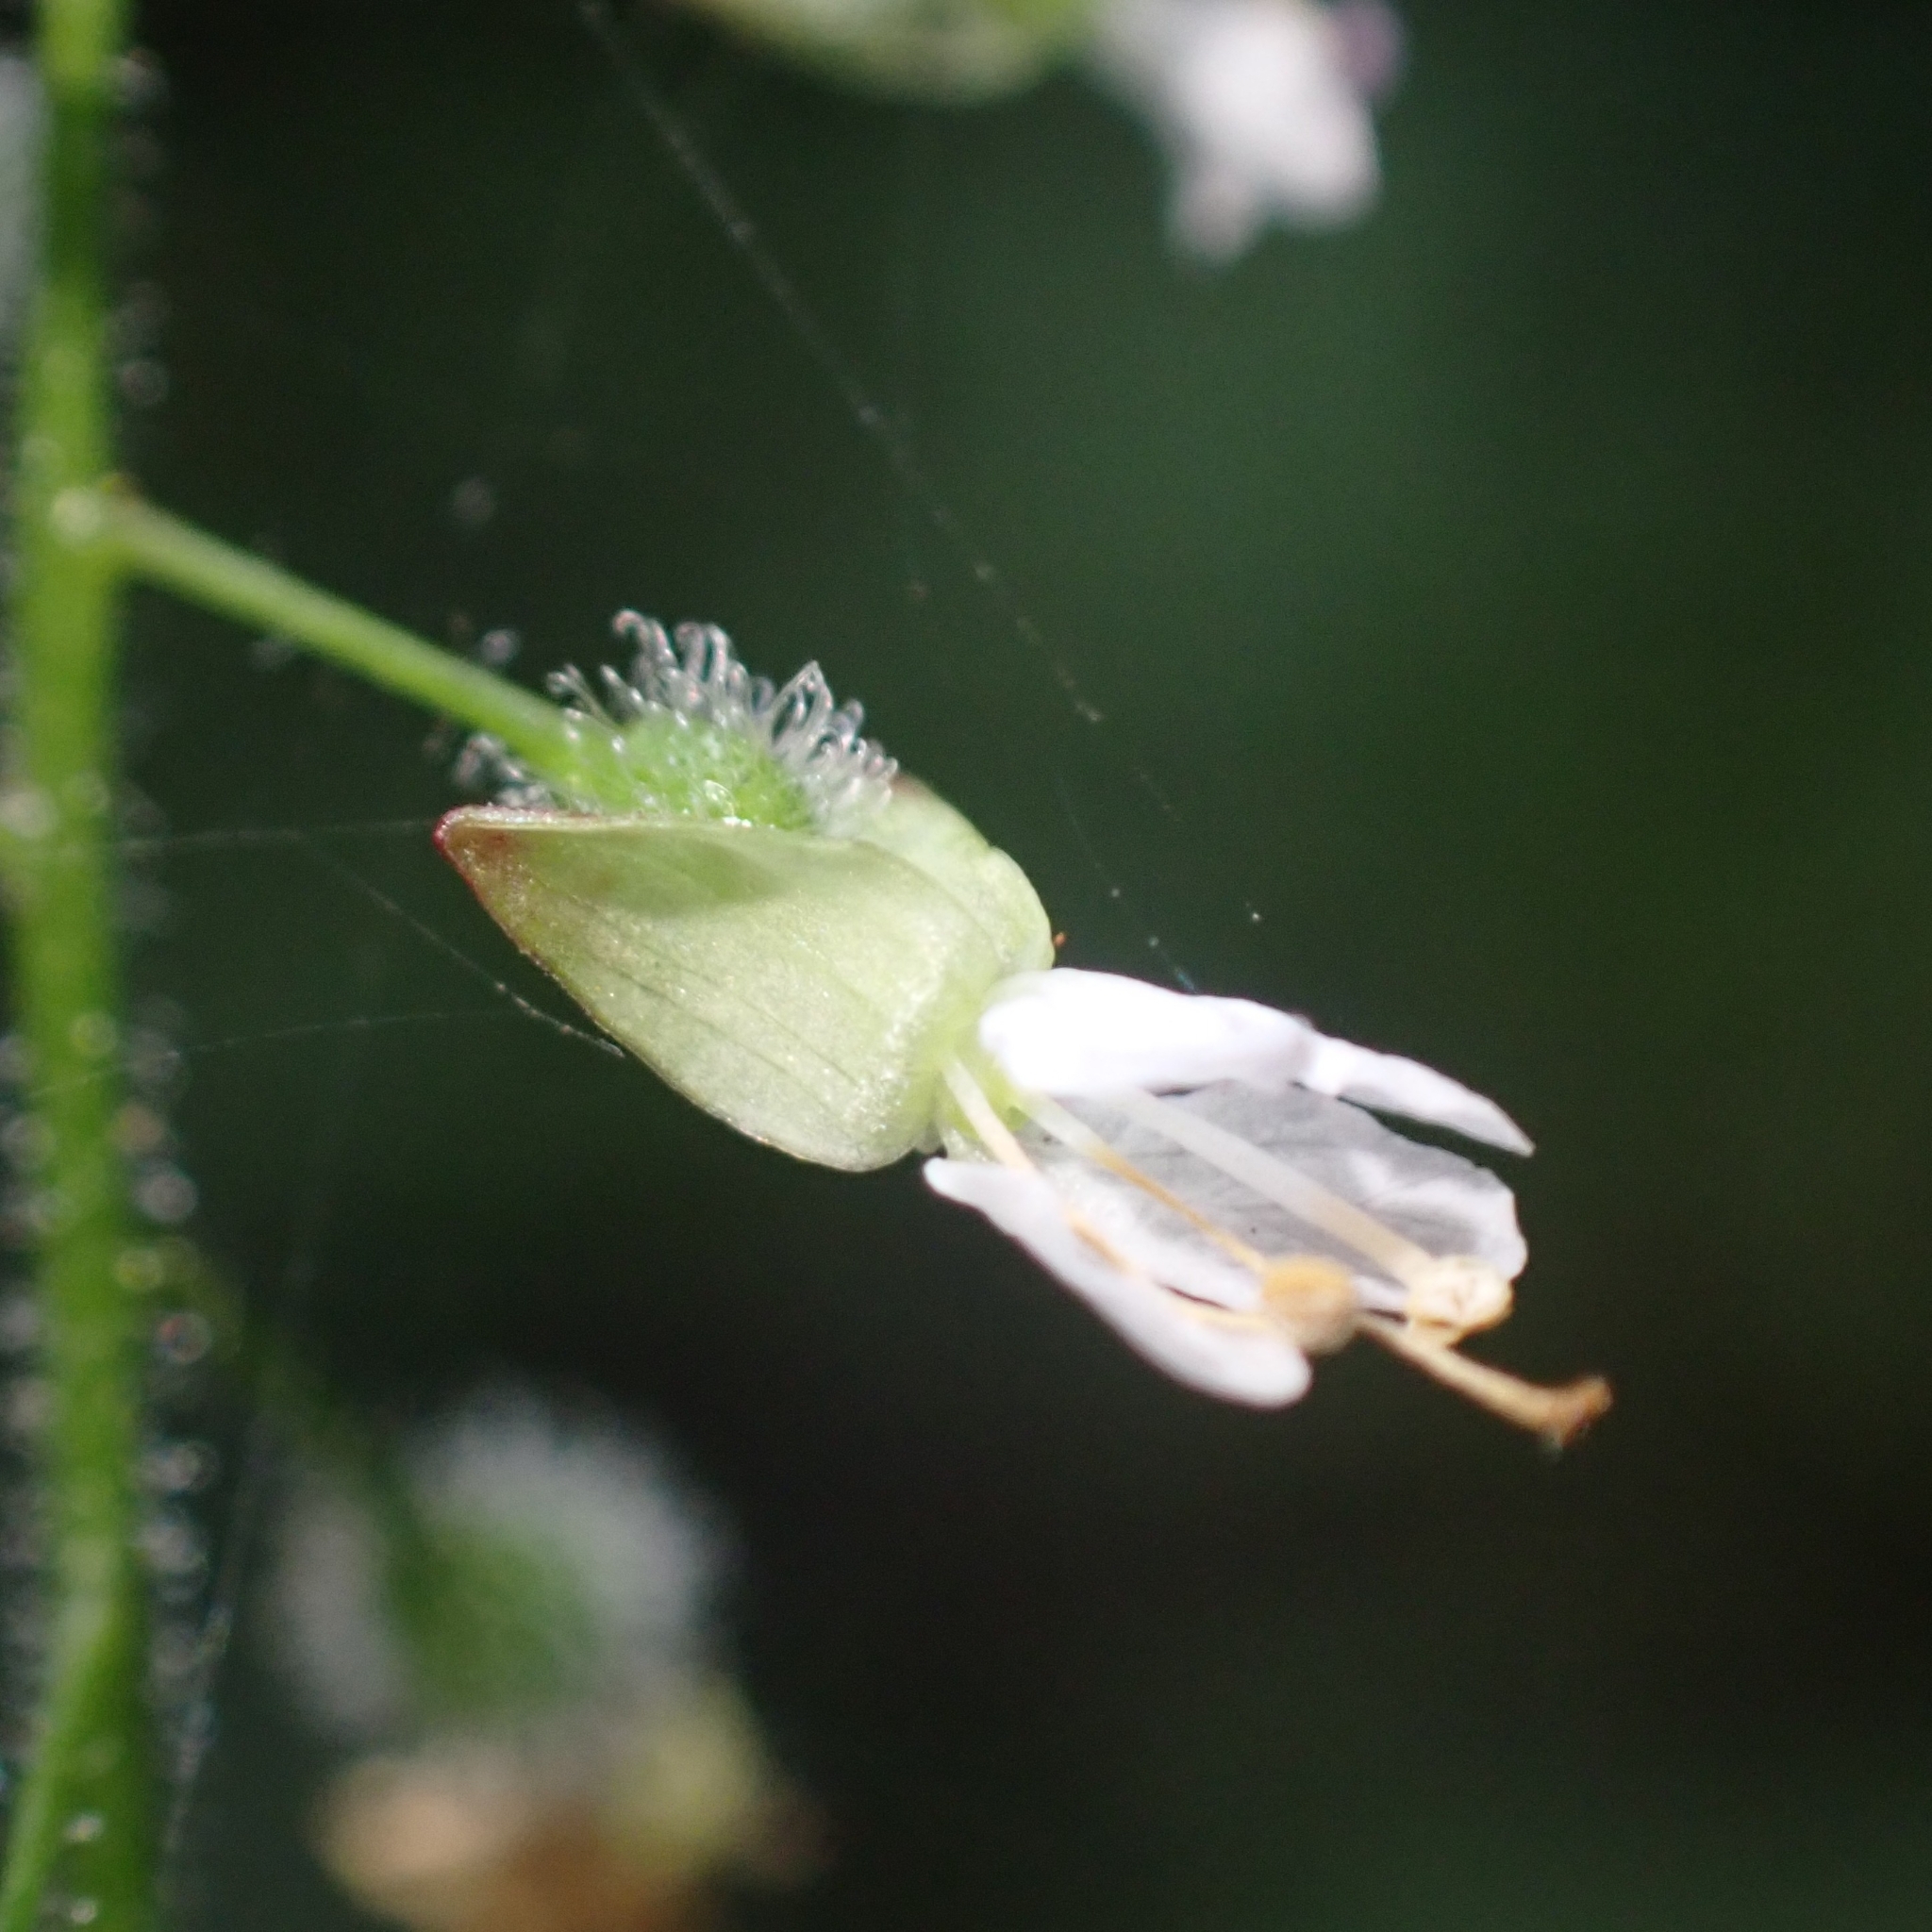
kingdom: Plantae
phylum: Tracheophyta
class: Magnoliopsida
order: Myrtales
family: Onagraceae
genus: Circaea
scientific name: Circaea lutetiana
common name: Enchanter's-nightshade
